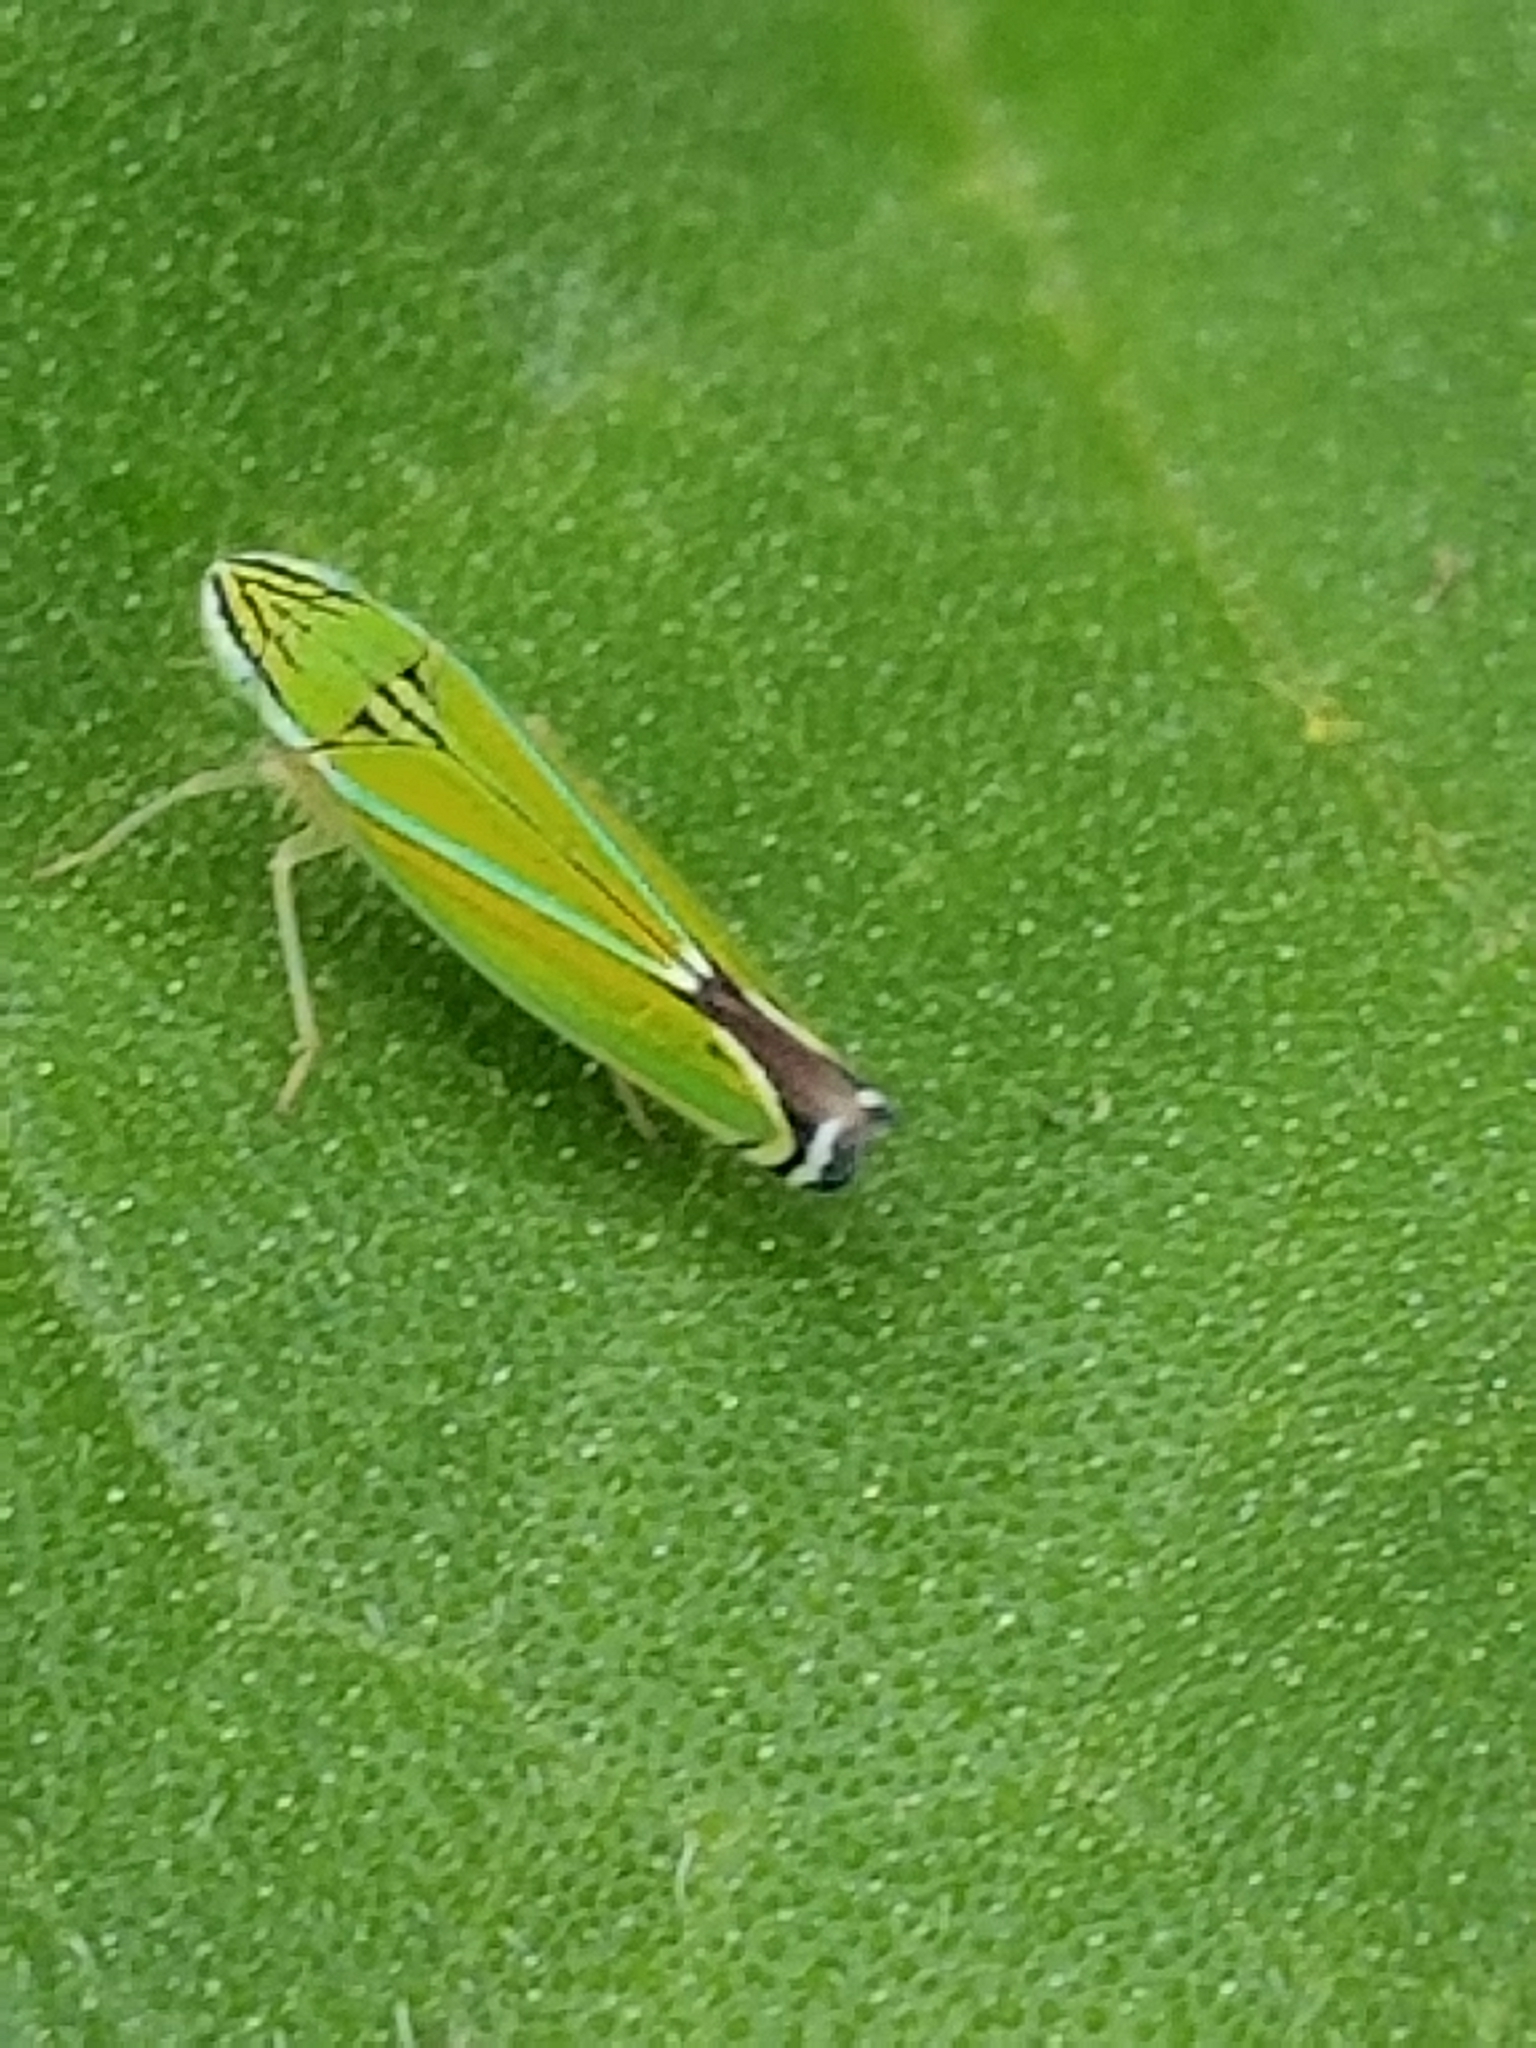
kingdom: Animalia
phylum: Arthropoda
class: Insecta
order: Hemiptera
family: Cicadellidae
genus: Sibovia
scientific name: Sibovia occatoria
